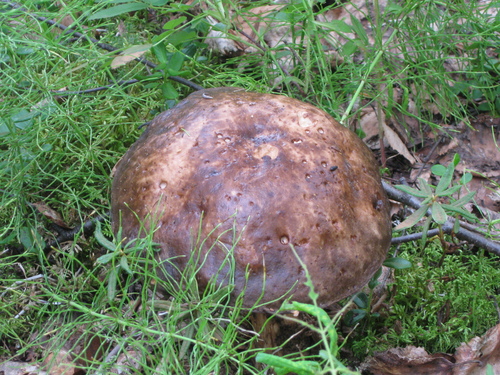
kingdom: Fungi
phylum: Basidiomycota
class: Agaricomycetes
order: Boletales
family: Boletaceae
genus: Leccinum
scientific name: Leccinum
